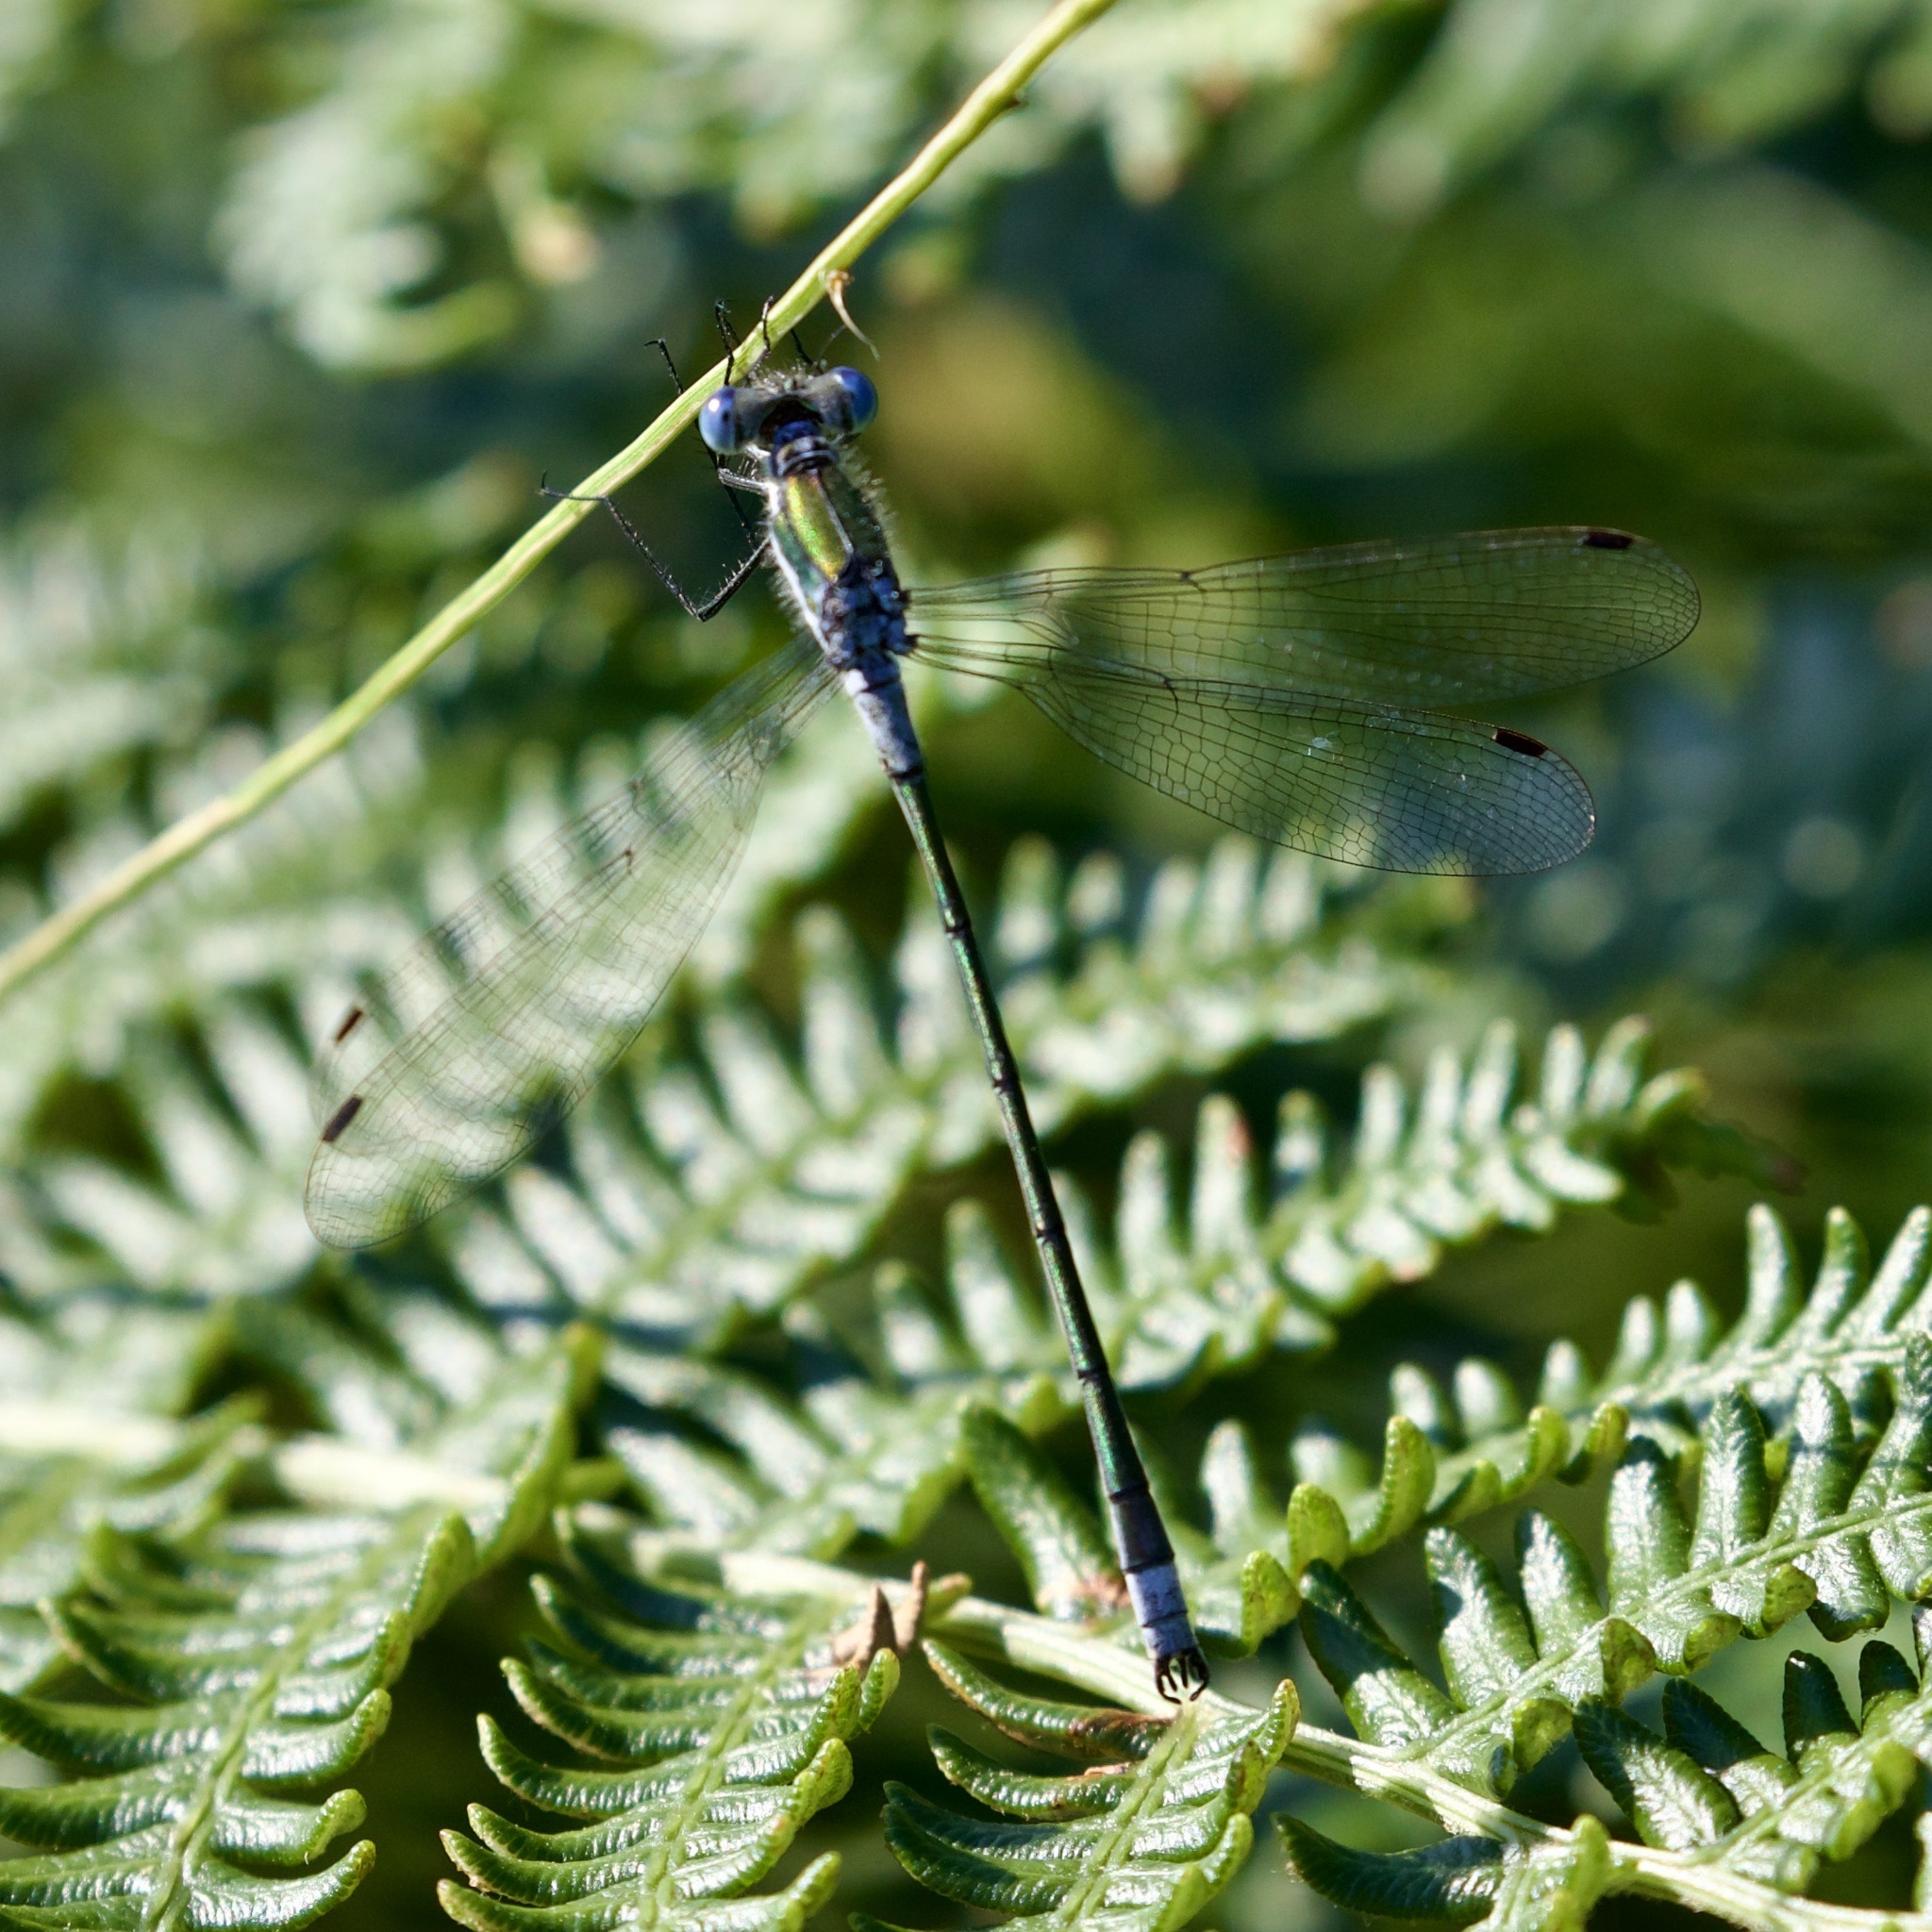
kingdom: Animalia
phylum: Arthropoda
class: Insecta
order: Odonata
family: Lestidae
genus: Lestes
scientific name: Lestes sponsa
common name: Common spreadwing
